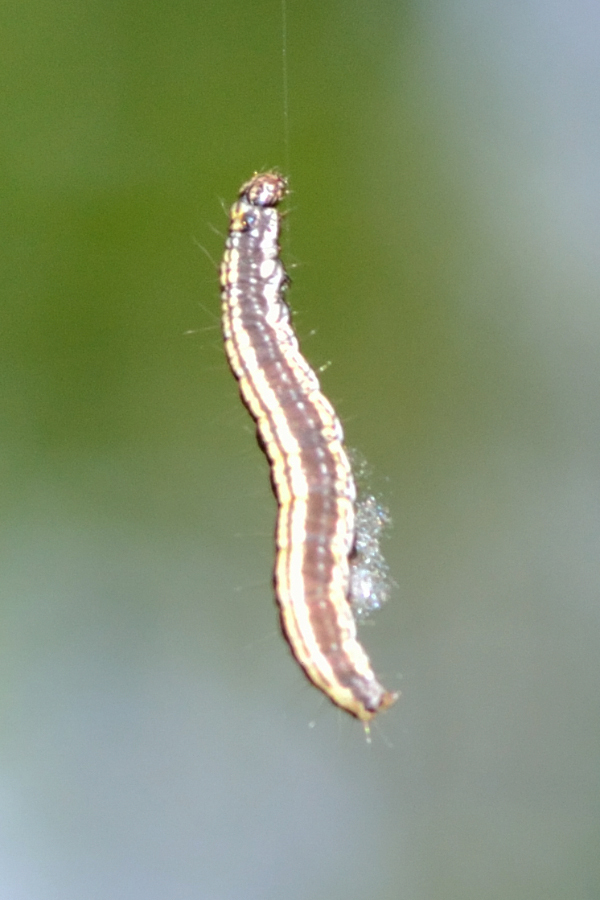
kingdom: Animalia
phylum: Arthropoda
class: Insecta
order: Lepidoptera
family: Pyralidae
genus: Ortholepis
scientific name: Ortholepis betulae
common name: Birch knot-horn
